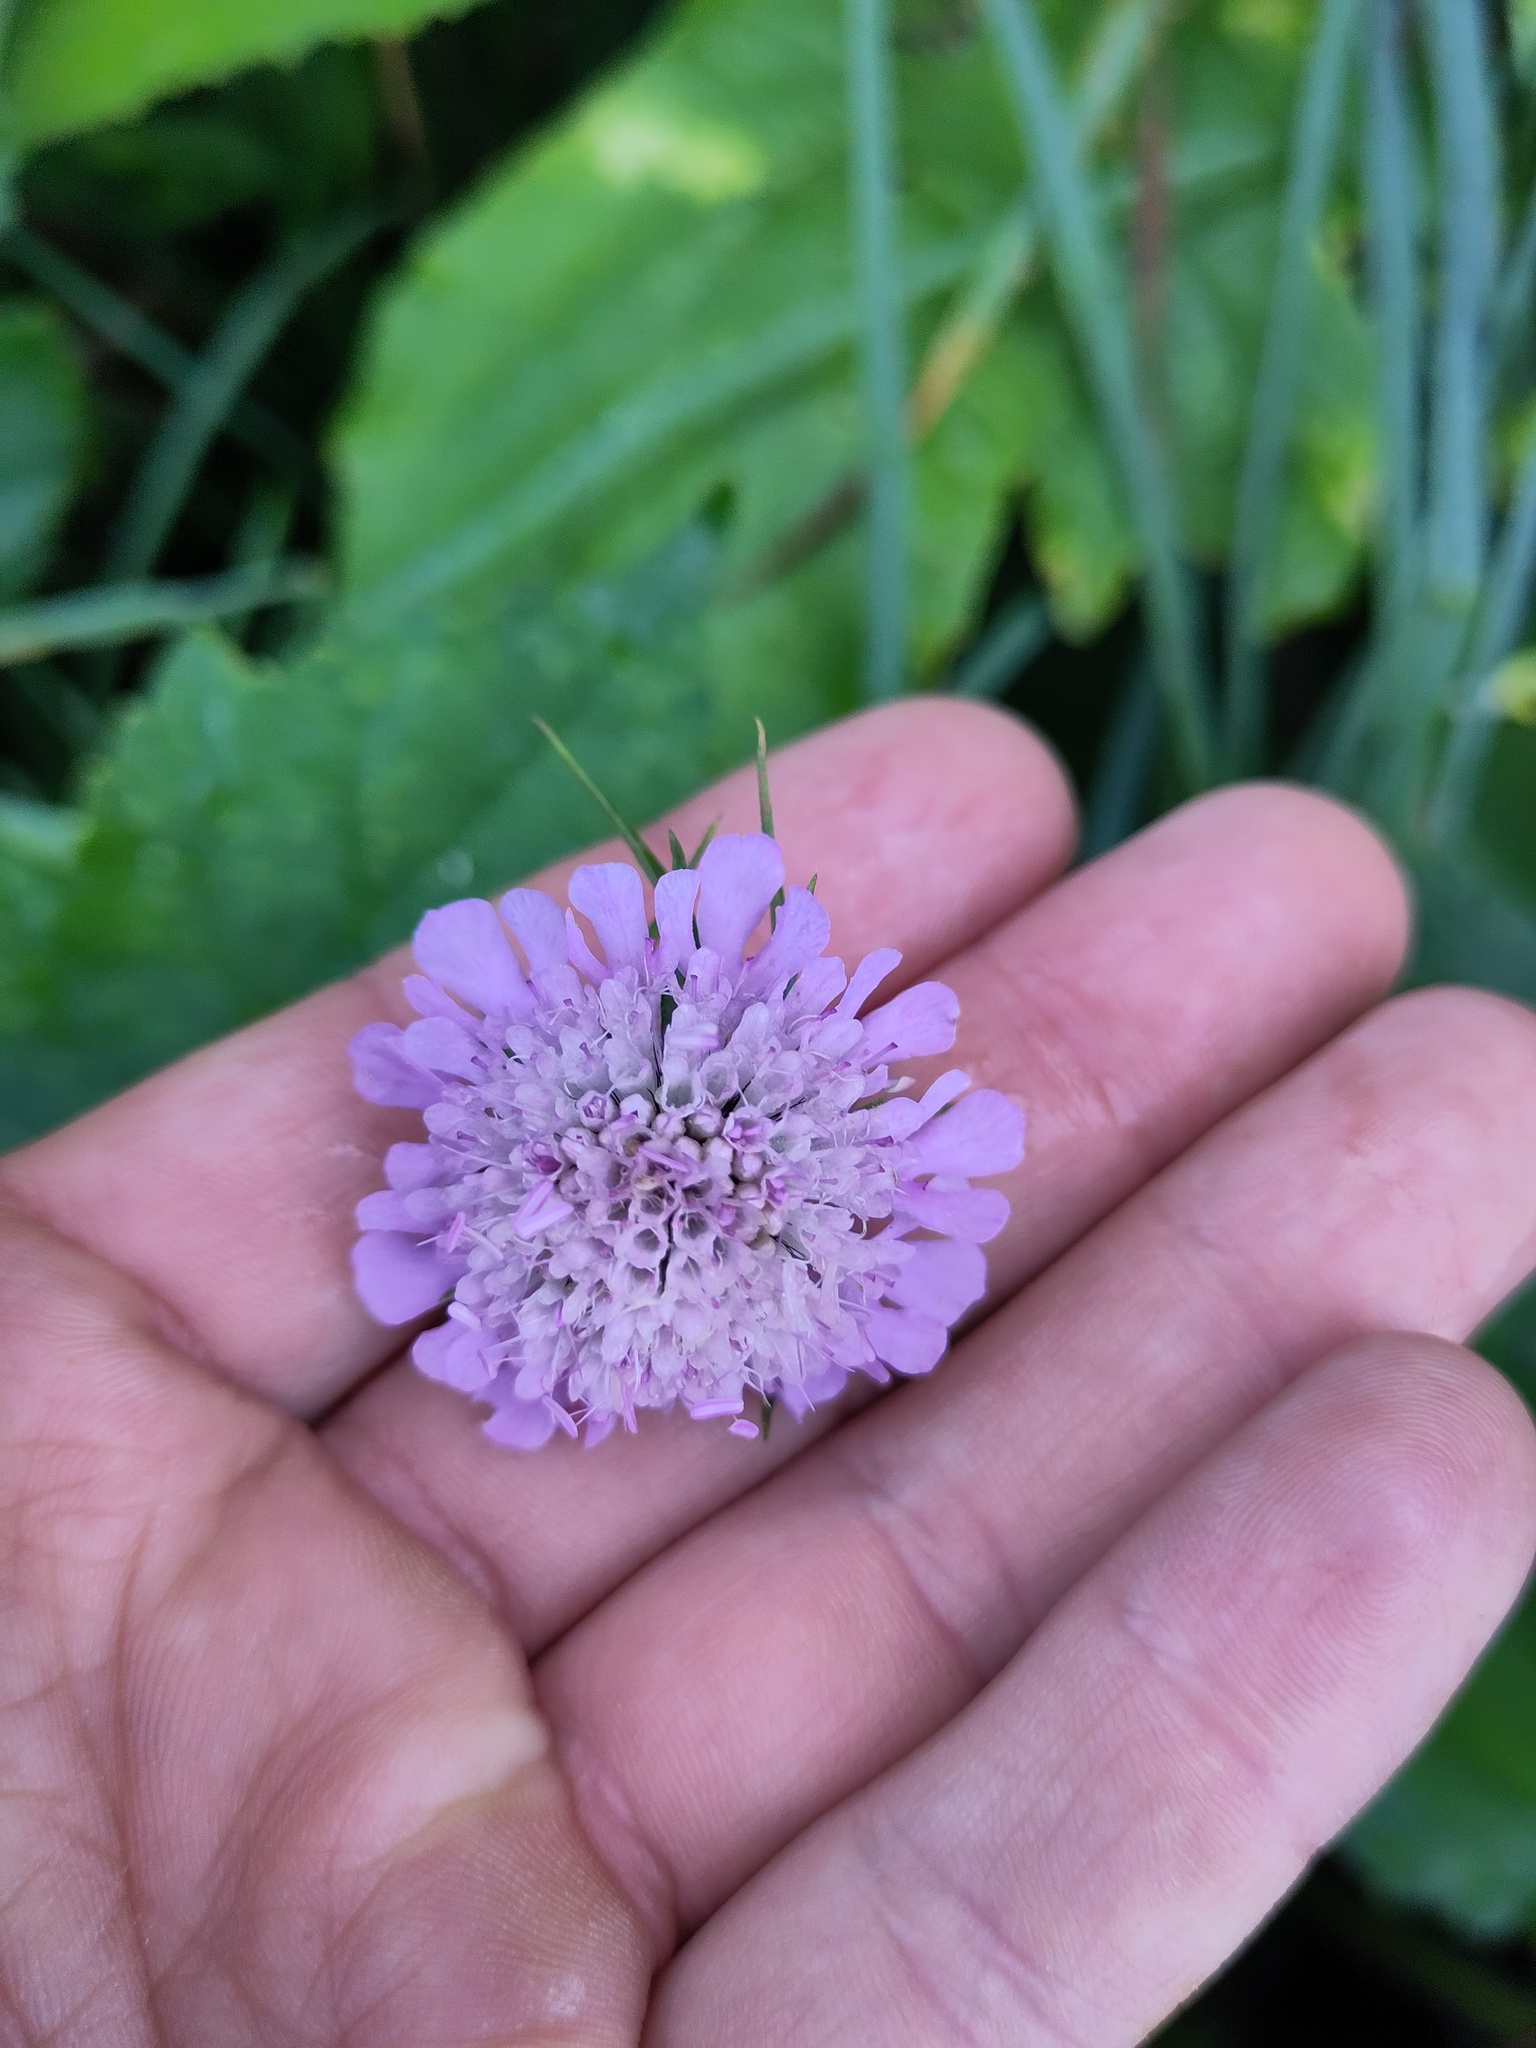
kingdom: Plantae
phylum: Tracheophyta
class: Magnoliopsida
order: Dipsacales
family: Caprifoliaceae
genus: Scabiosa
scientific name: Scabiosa lucida
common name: Shining scabious
